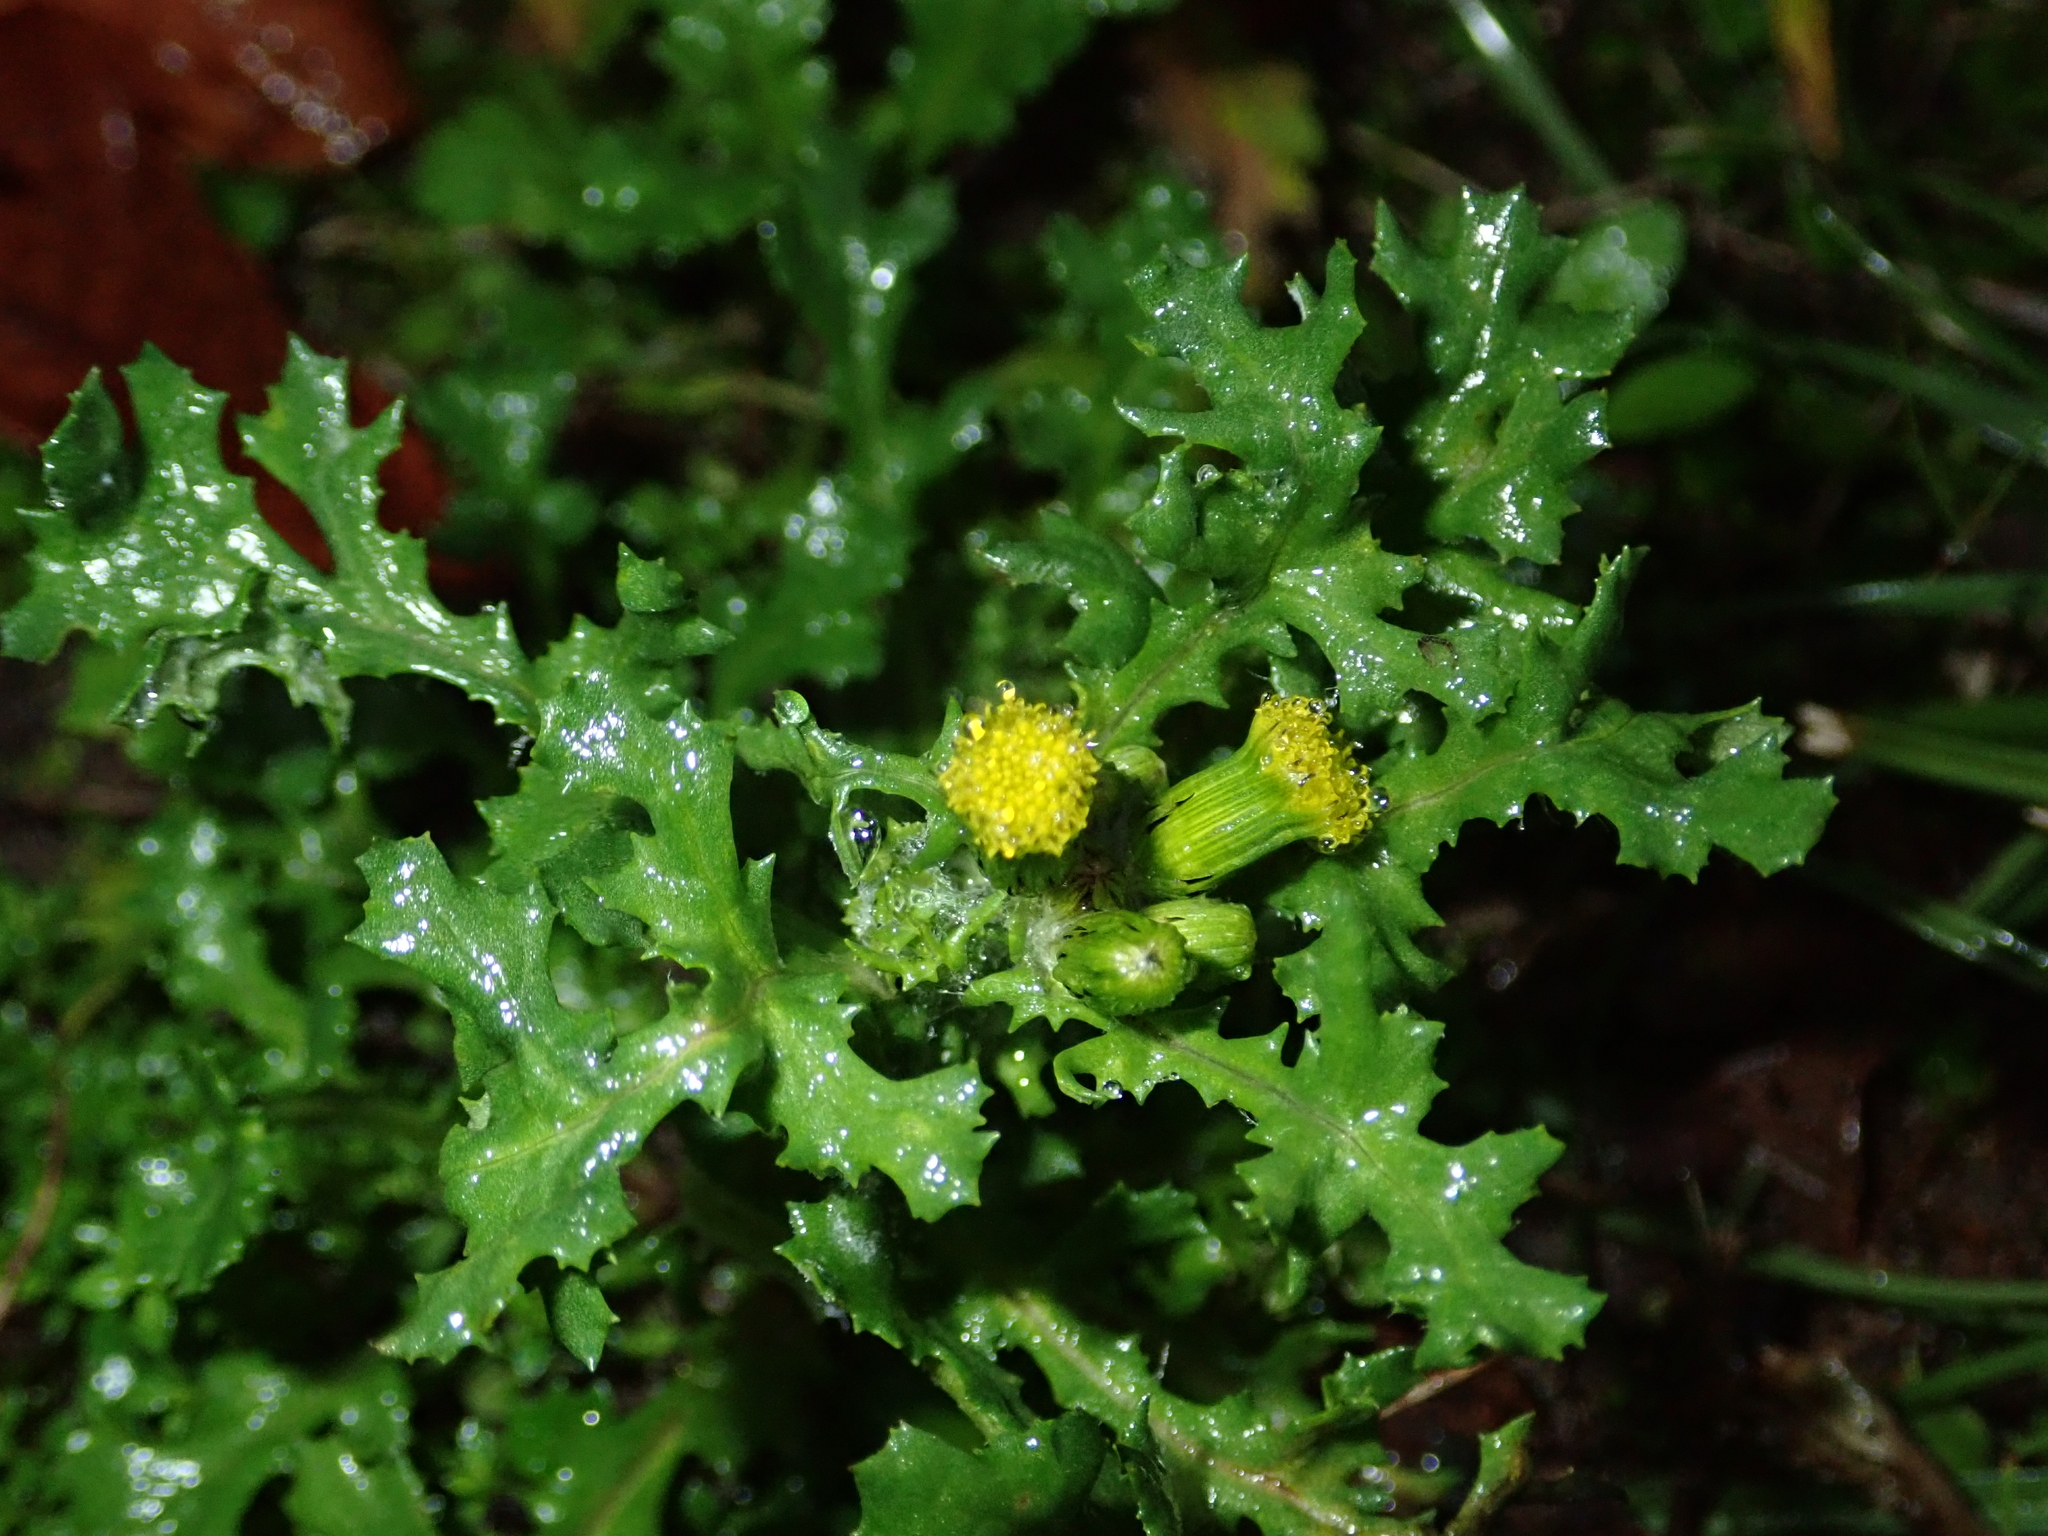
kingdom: Plantae
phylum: Tracheophyta
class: Magnoliopsida
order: Asterales
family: Asteraceae
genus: Senecio
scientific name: Senecio vulgaris
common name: Old-man-in-the-spring
